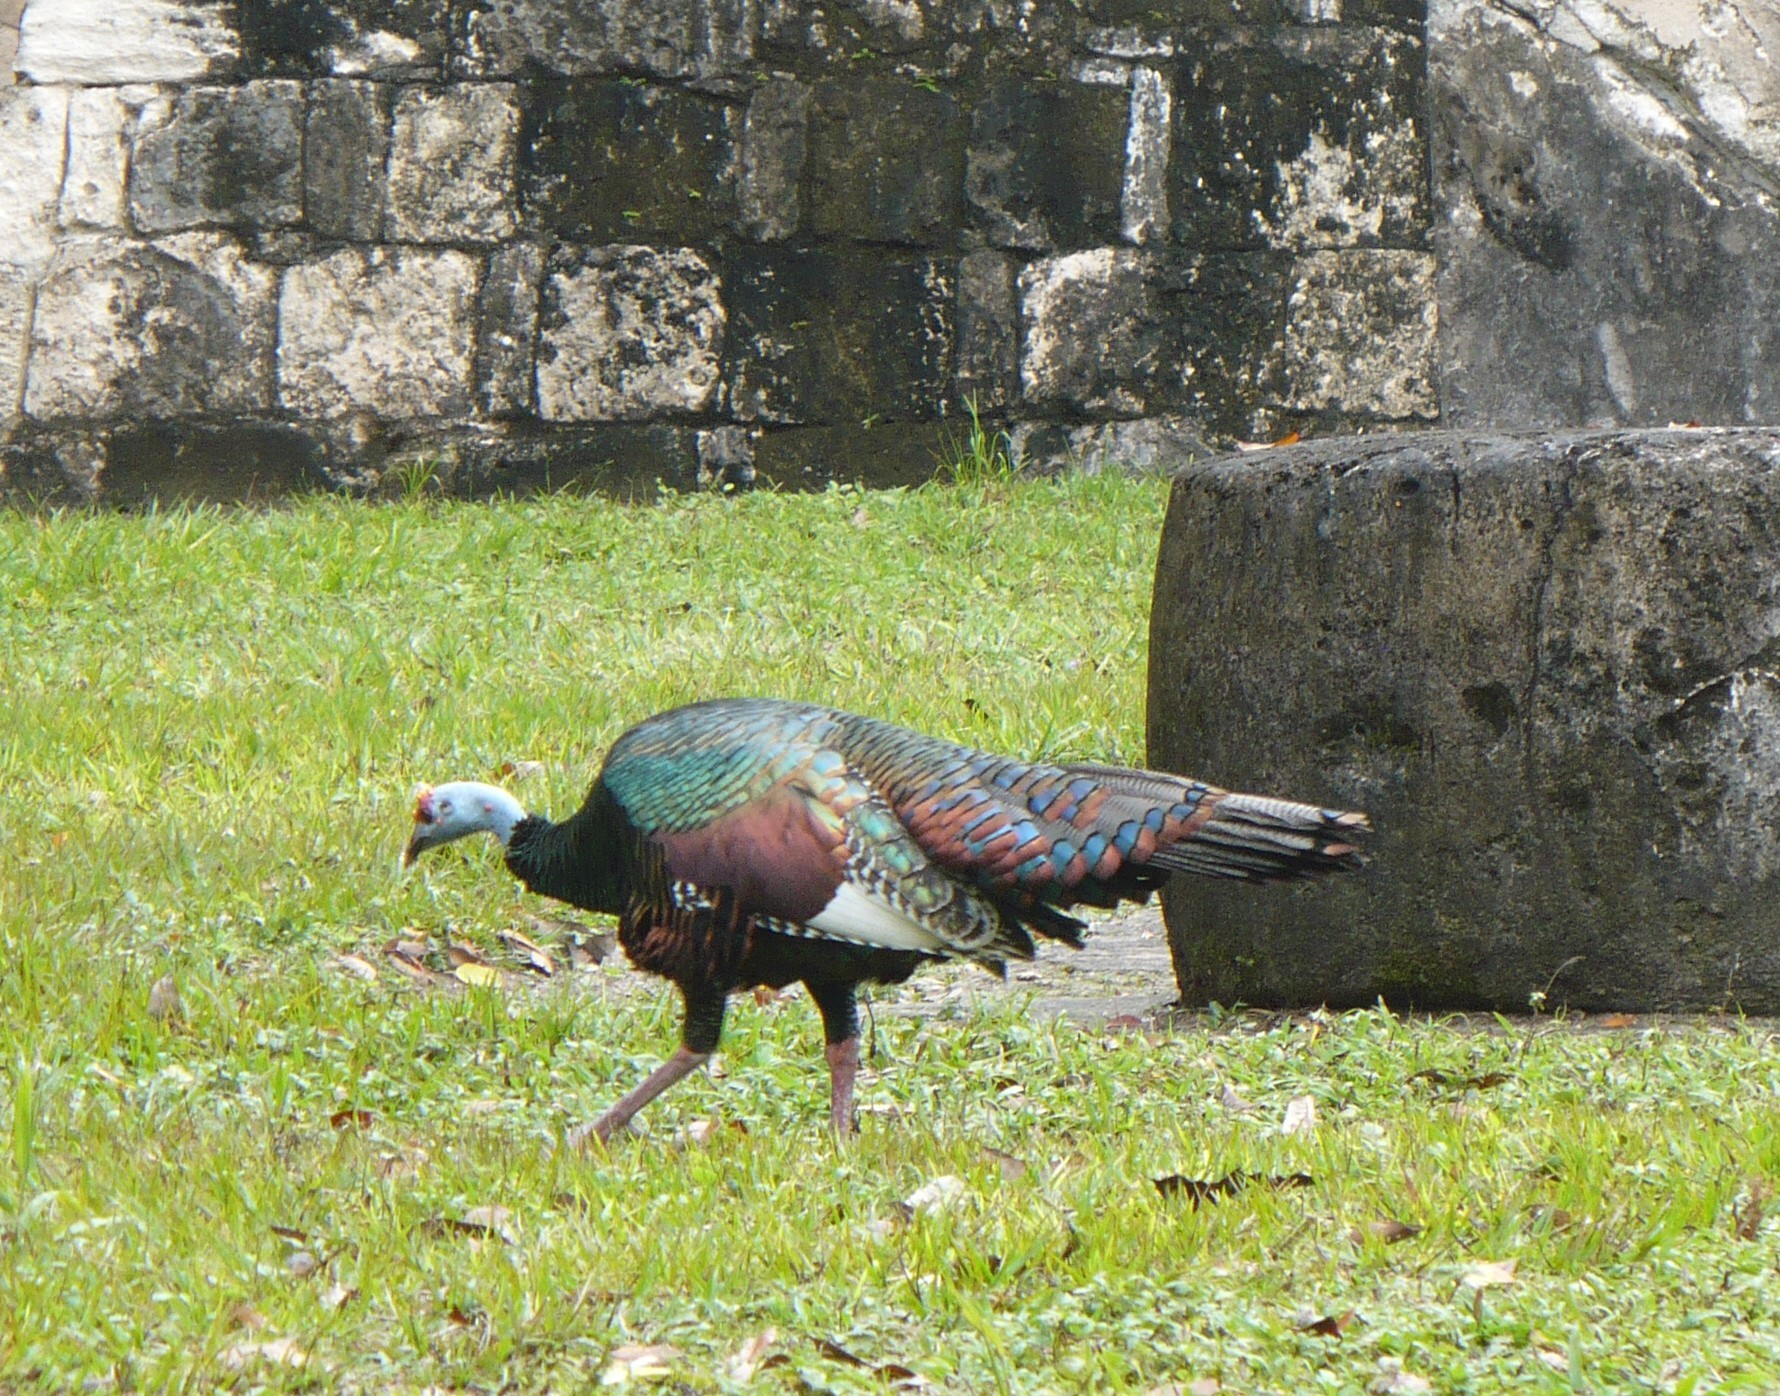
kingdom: Animalia
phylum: Chordata
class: Aves
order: Galliformes
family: Phasianidae
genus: Meleagris
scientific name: Meleagris ocellata
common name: Ocellated turkey
